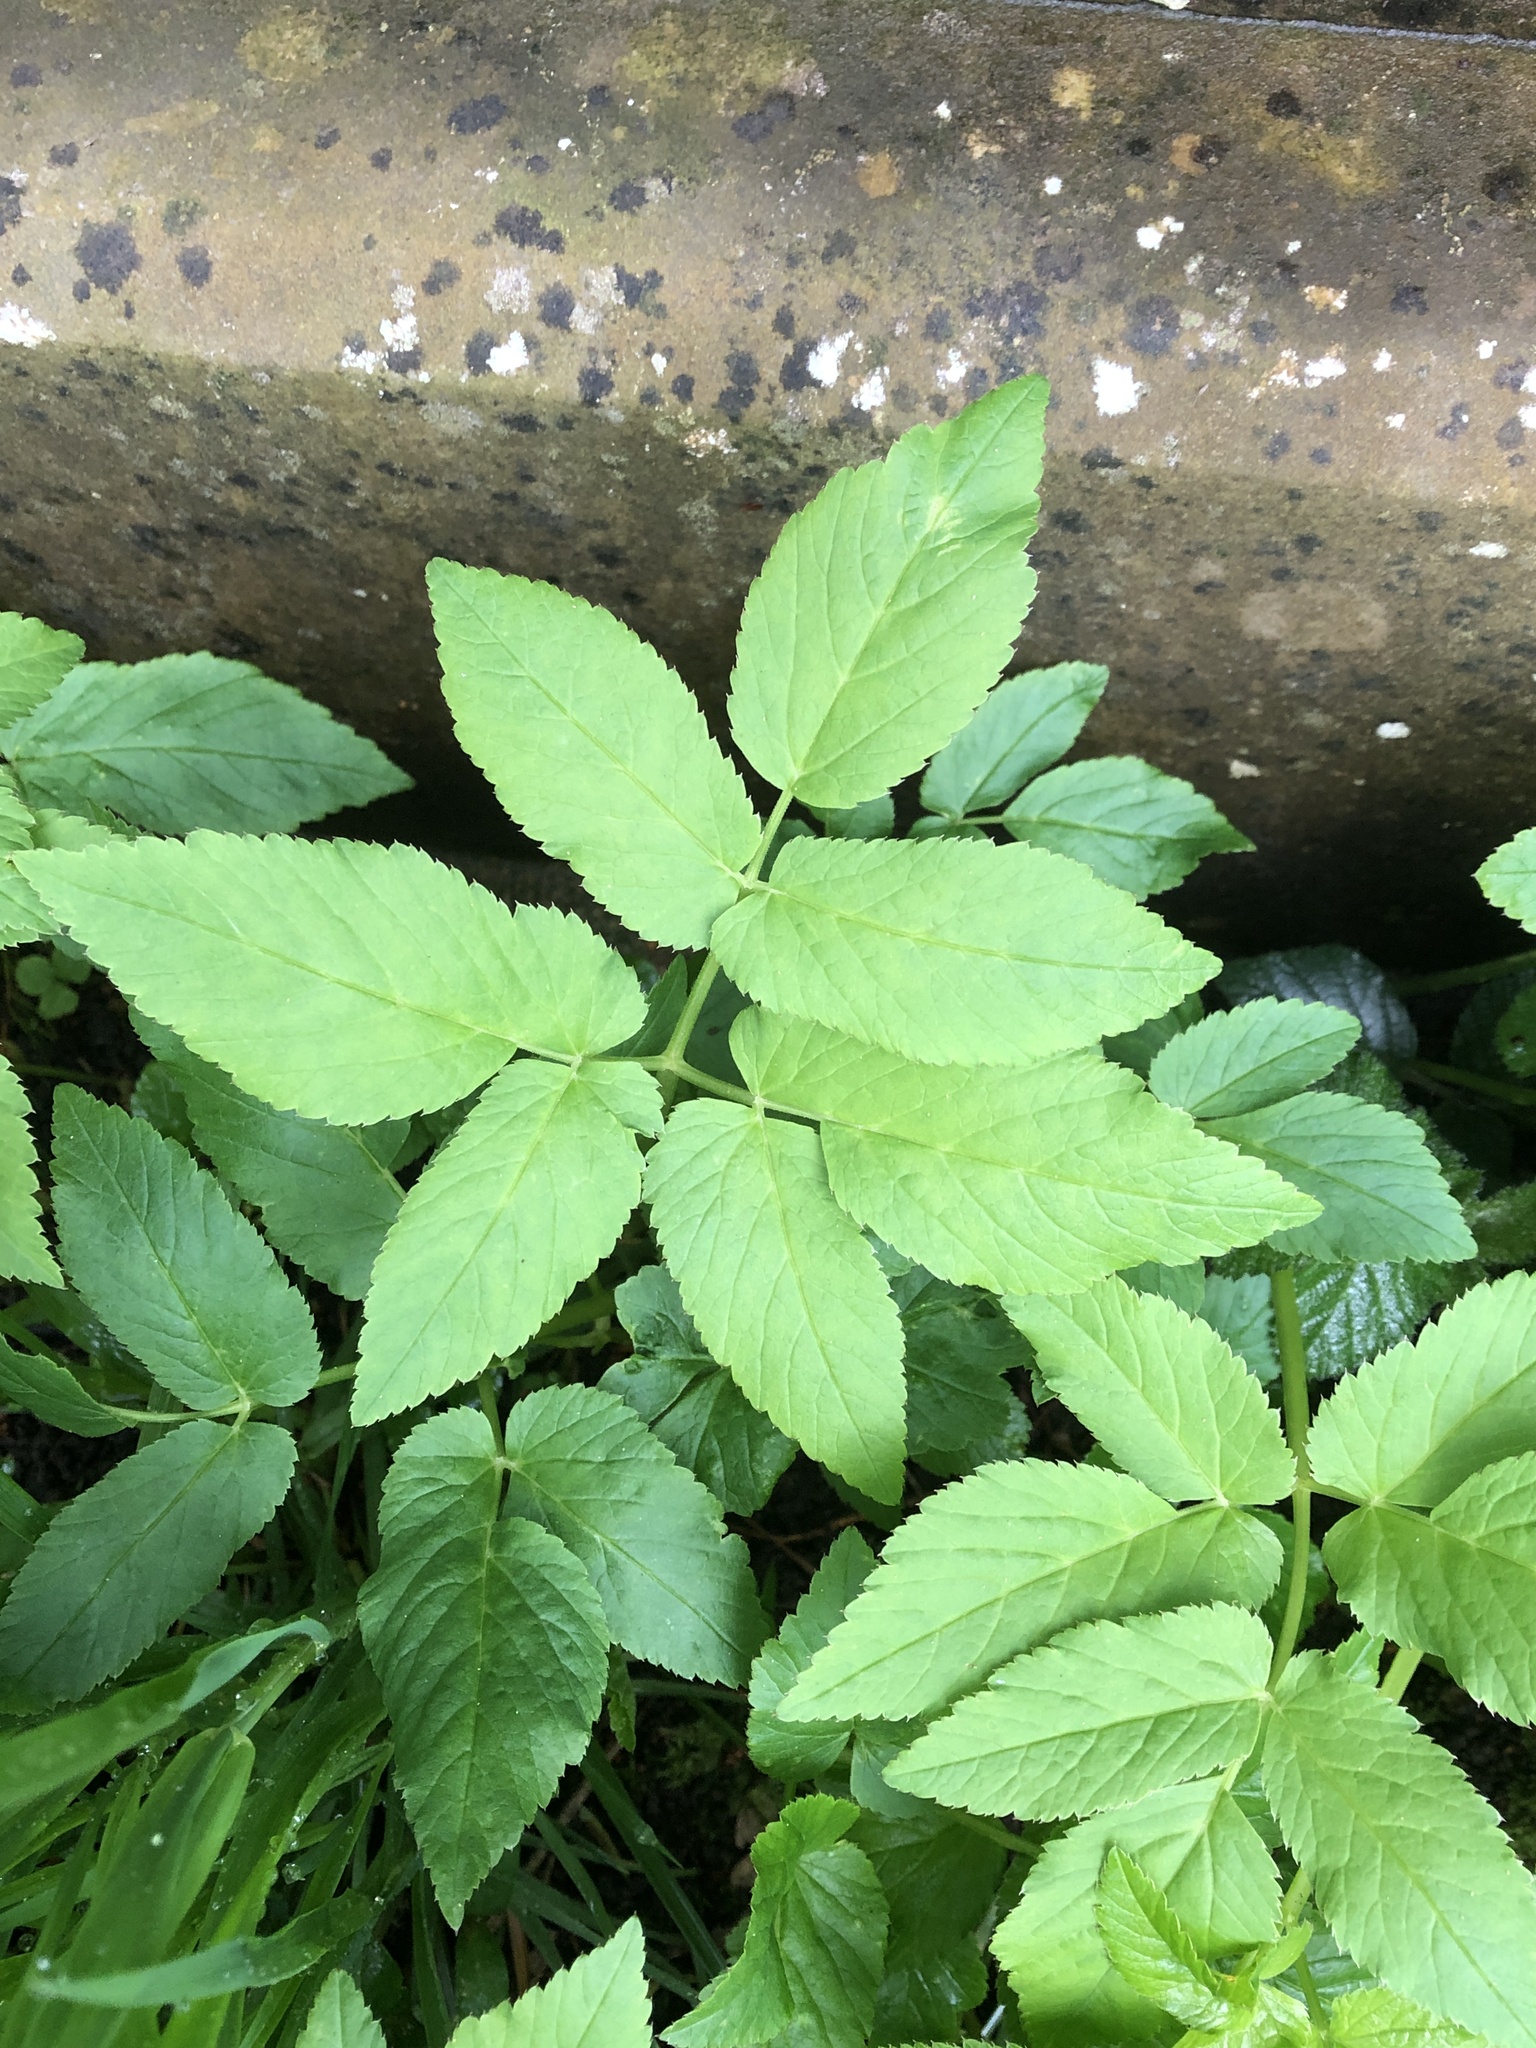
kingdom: Plantae
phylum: Tracheophyta
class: Magnoliopsida
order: Apiales
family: Apiaceae
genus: Aegopodium
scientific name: Aegopodium podagraria
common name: Ground-elder
